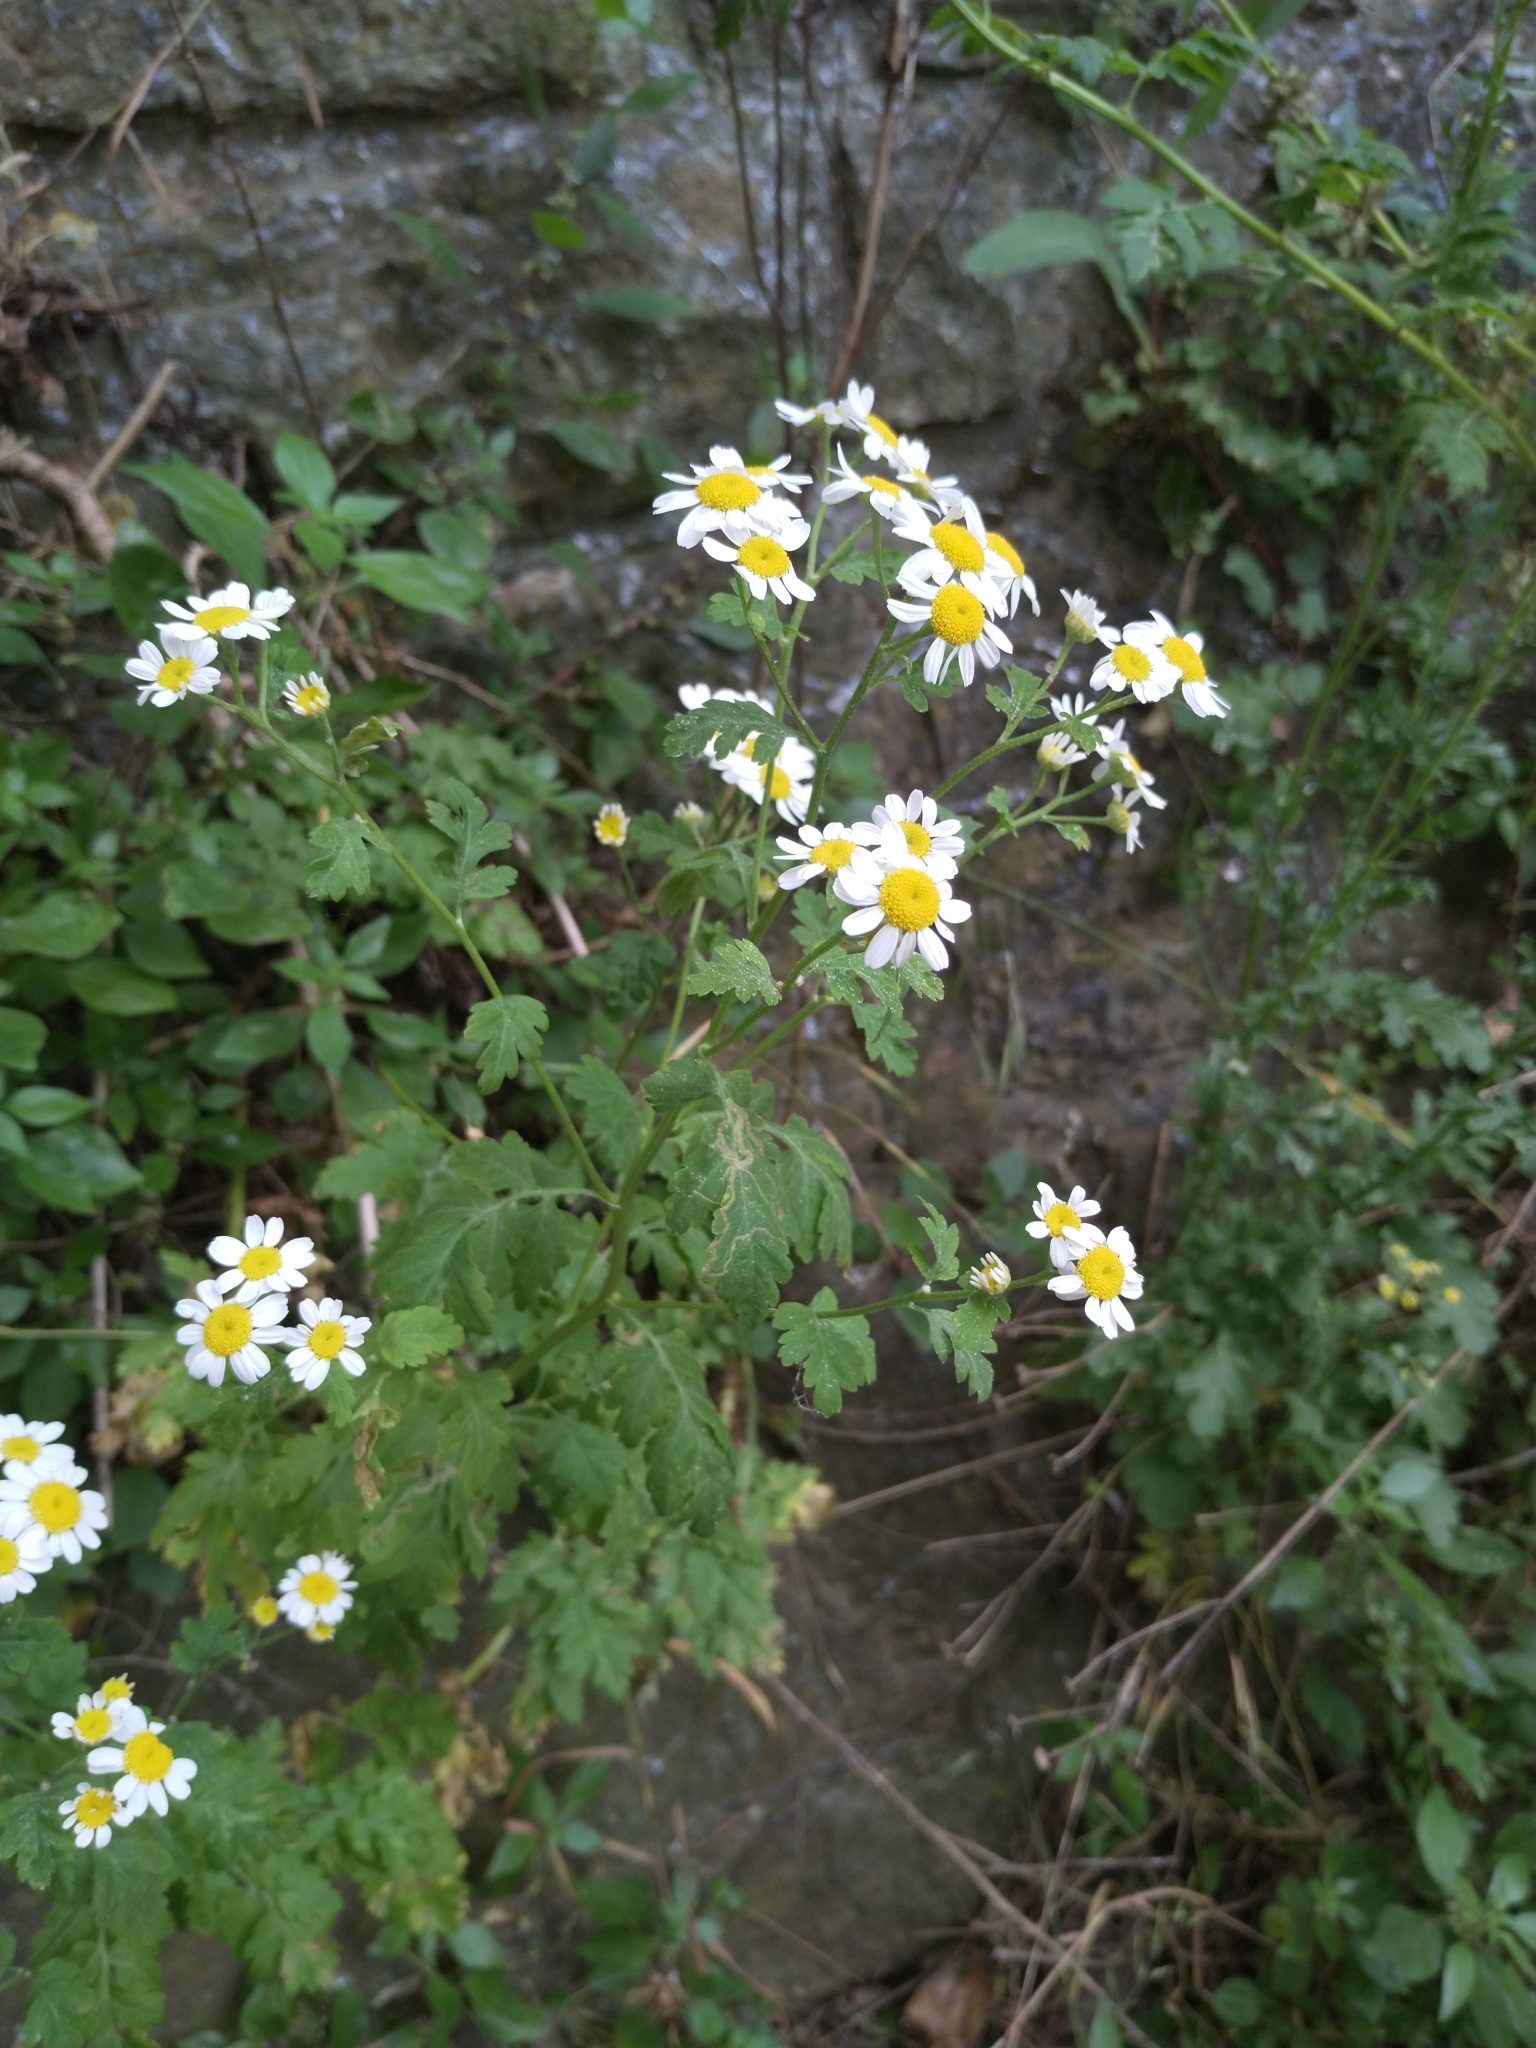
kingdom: Plantae
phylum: Tracheophyta
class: Magnoliopsida
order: Asterales
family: Asteraceae
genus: Tanacetum
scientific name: Tanacetum parthenium
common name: Feverfew
